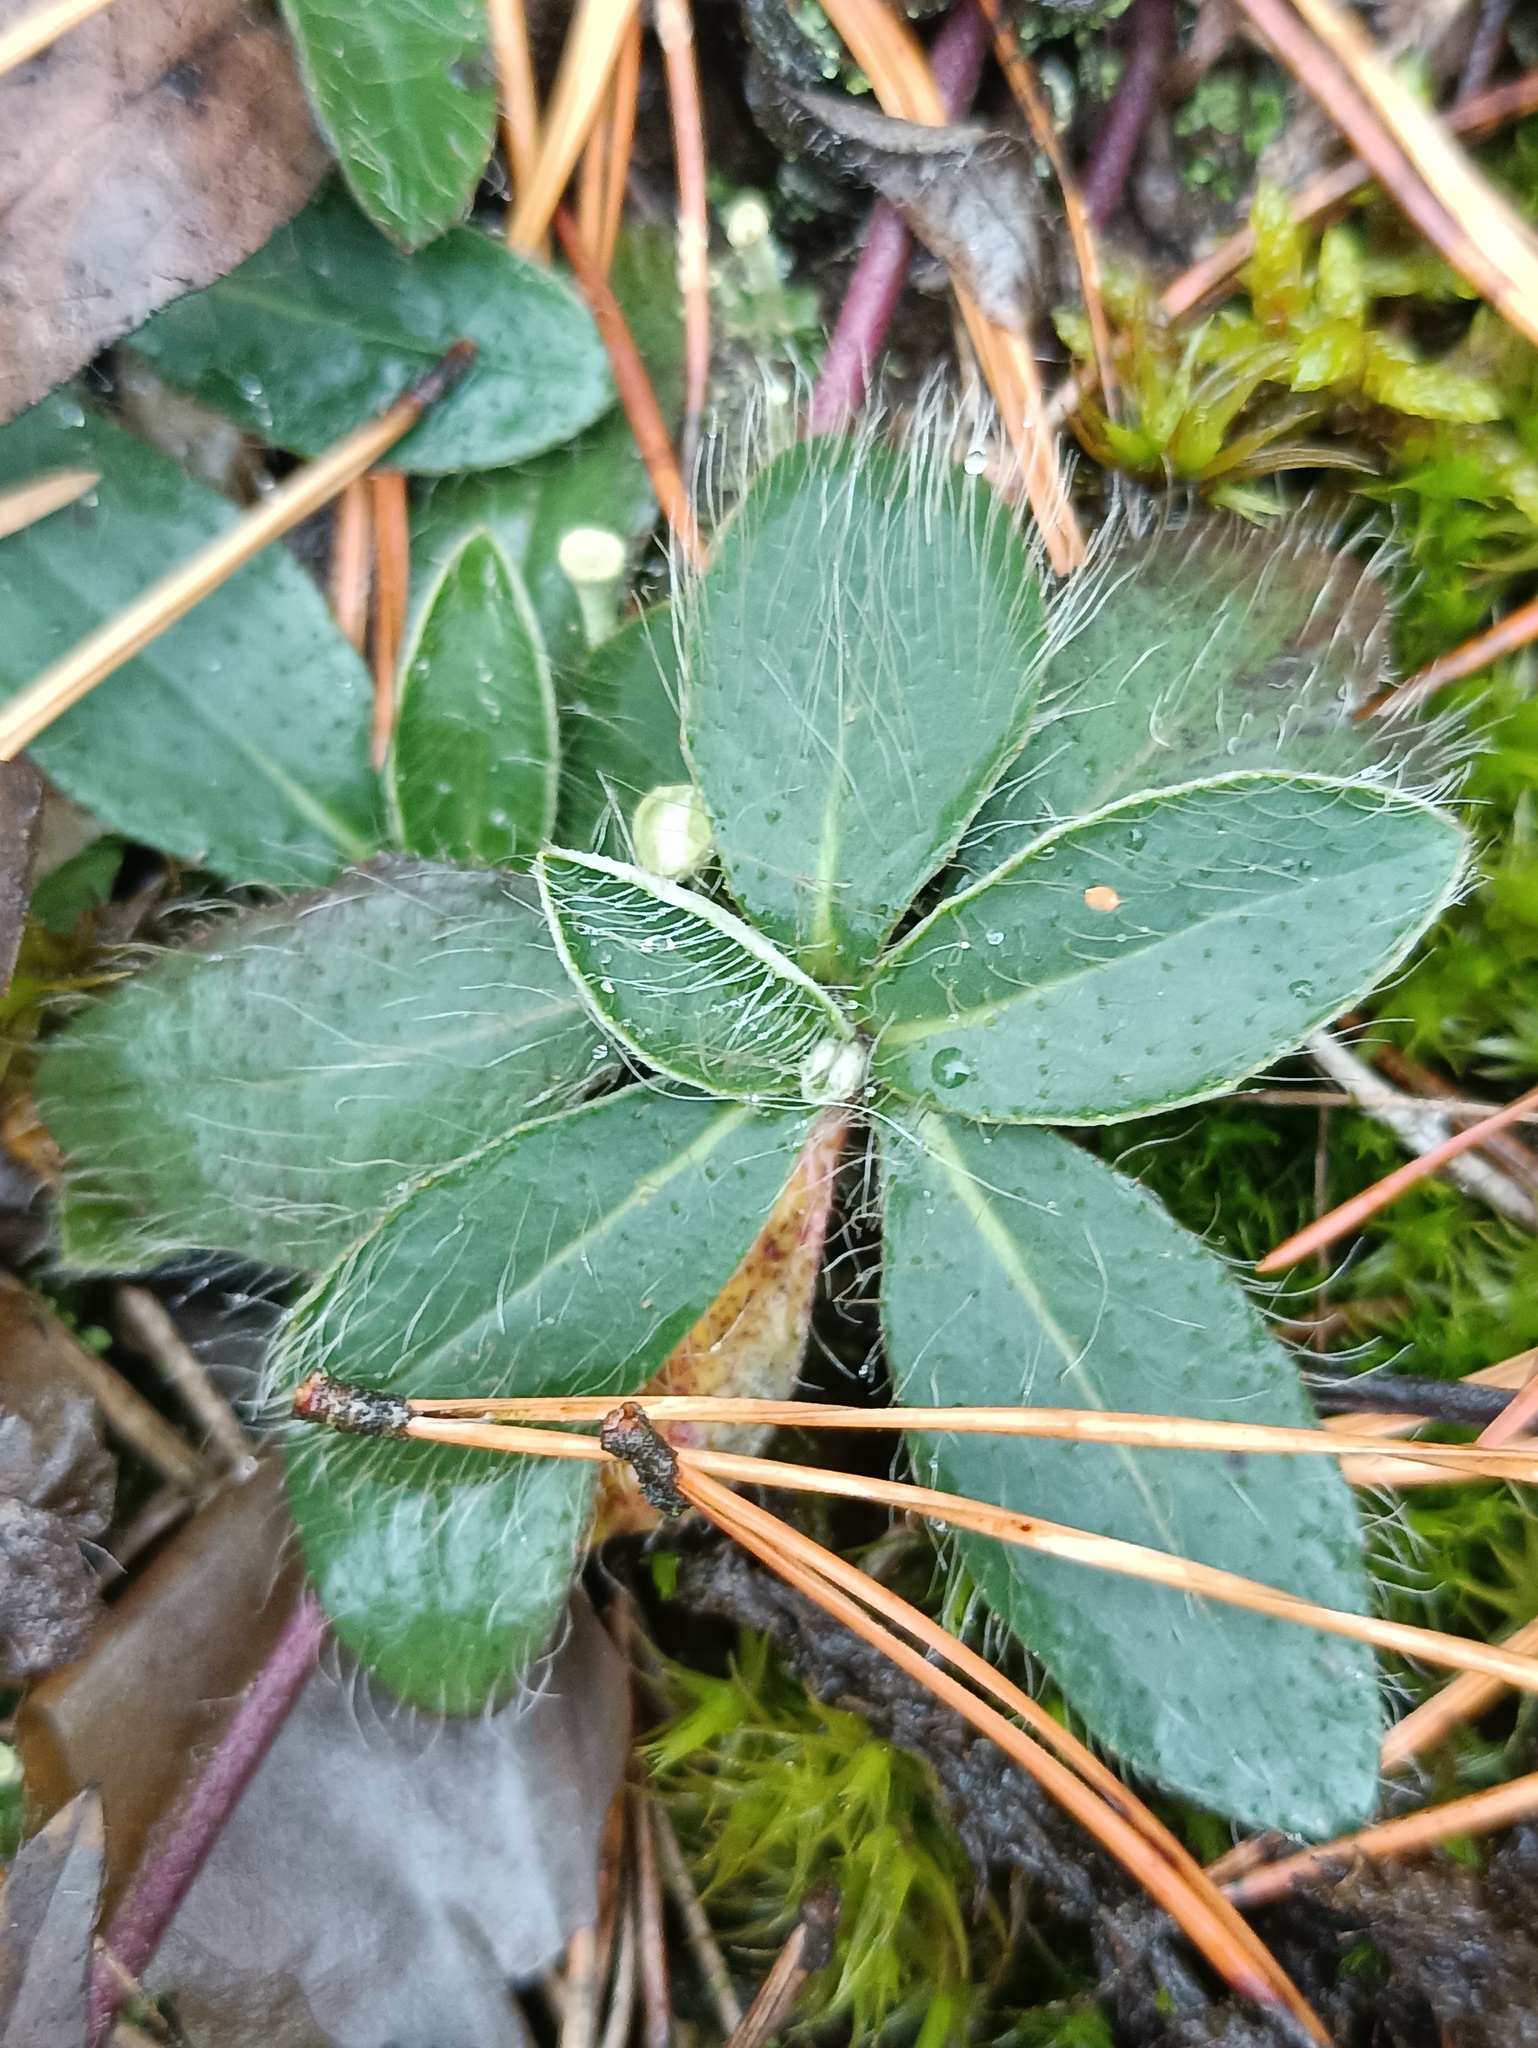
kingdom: Plantae
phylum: Tracheophyta
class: Magnoliopsida
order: Asterales
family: Asteraceae
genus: Pilosella
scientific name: Pilosella officinarum
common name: Mouse-ear hawkweed
